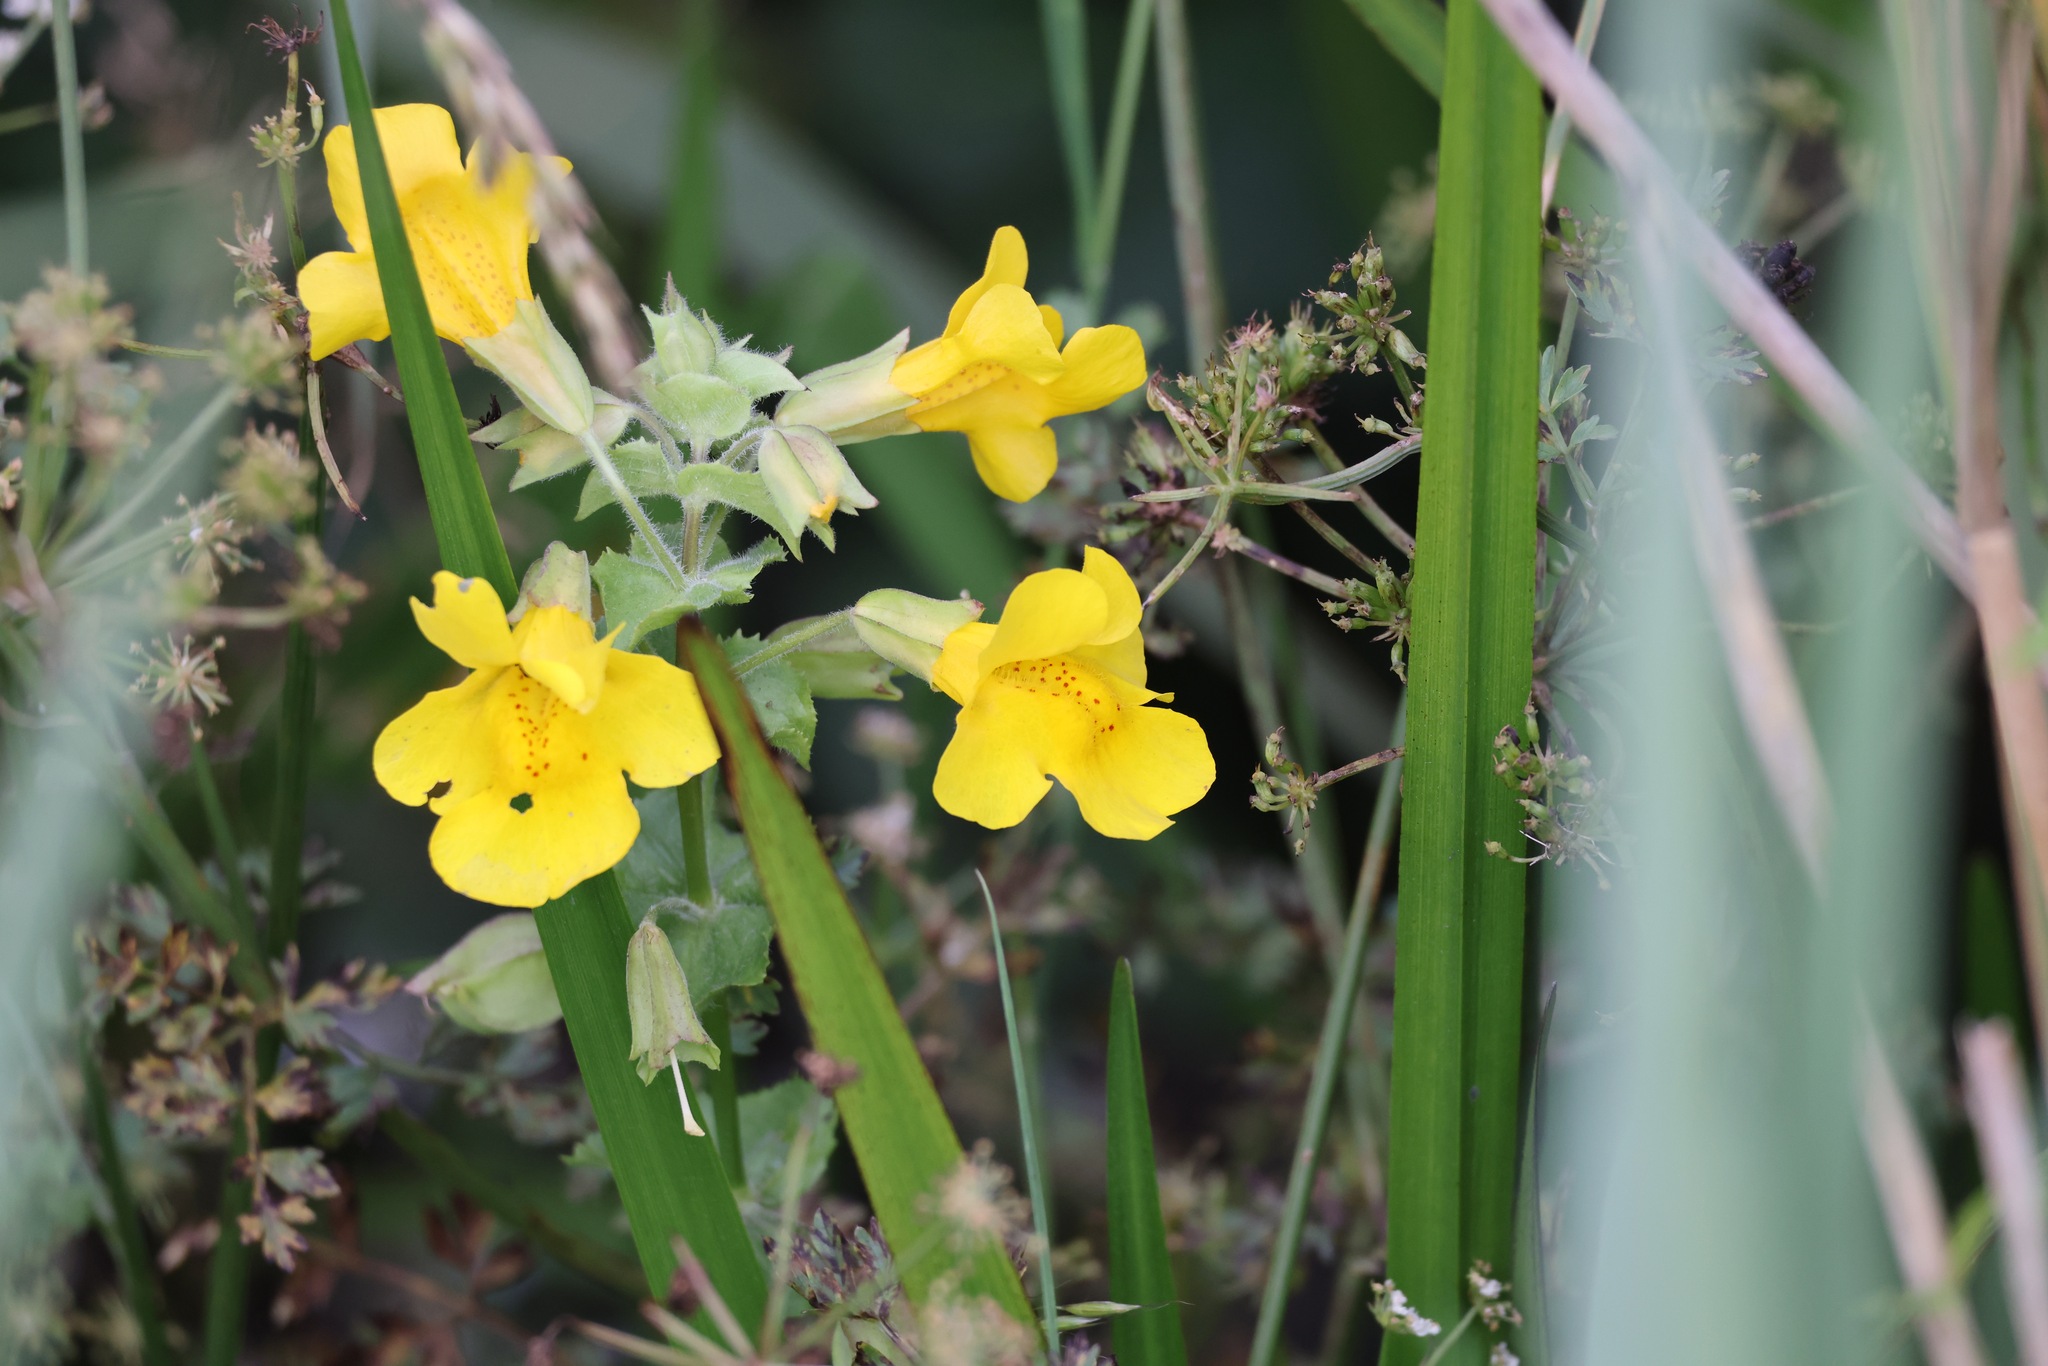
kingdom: Plantae
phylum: Tracheophyta
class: Magnoliopsida
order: Lamiales
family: Phrymaceae
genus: Erythranthe
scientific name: Erythranthe guttata
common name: Monkeyflower
